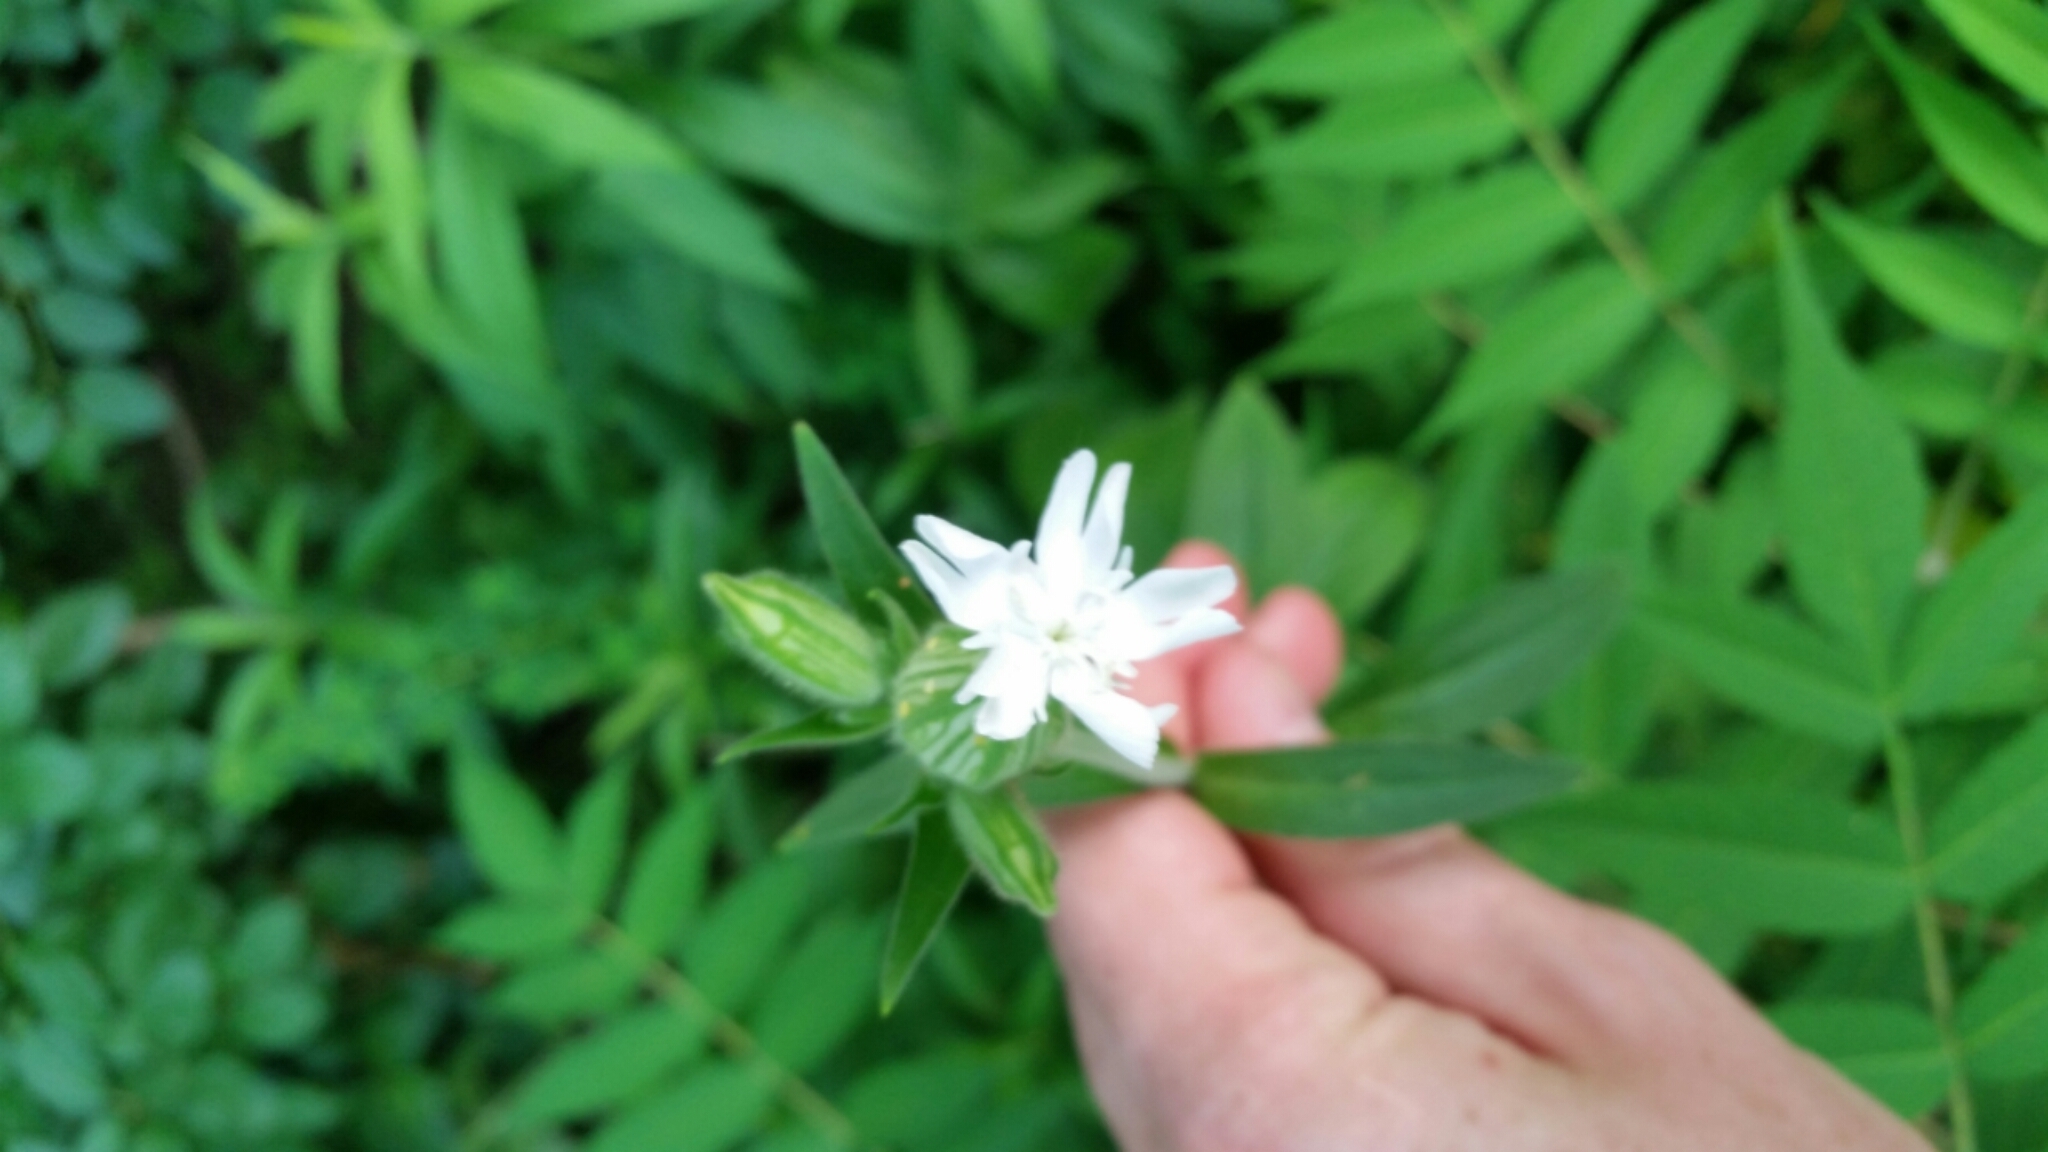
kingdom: Plantae
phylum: Tracheophyta
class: Magnoliopsida
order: Caryophyllales
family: Caryophyllaceae
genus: Silene
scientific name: Silene latifolia
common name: White campion
